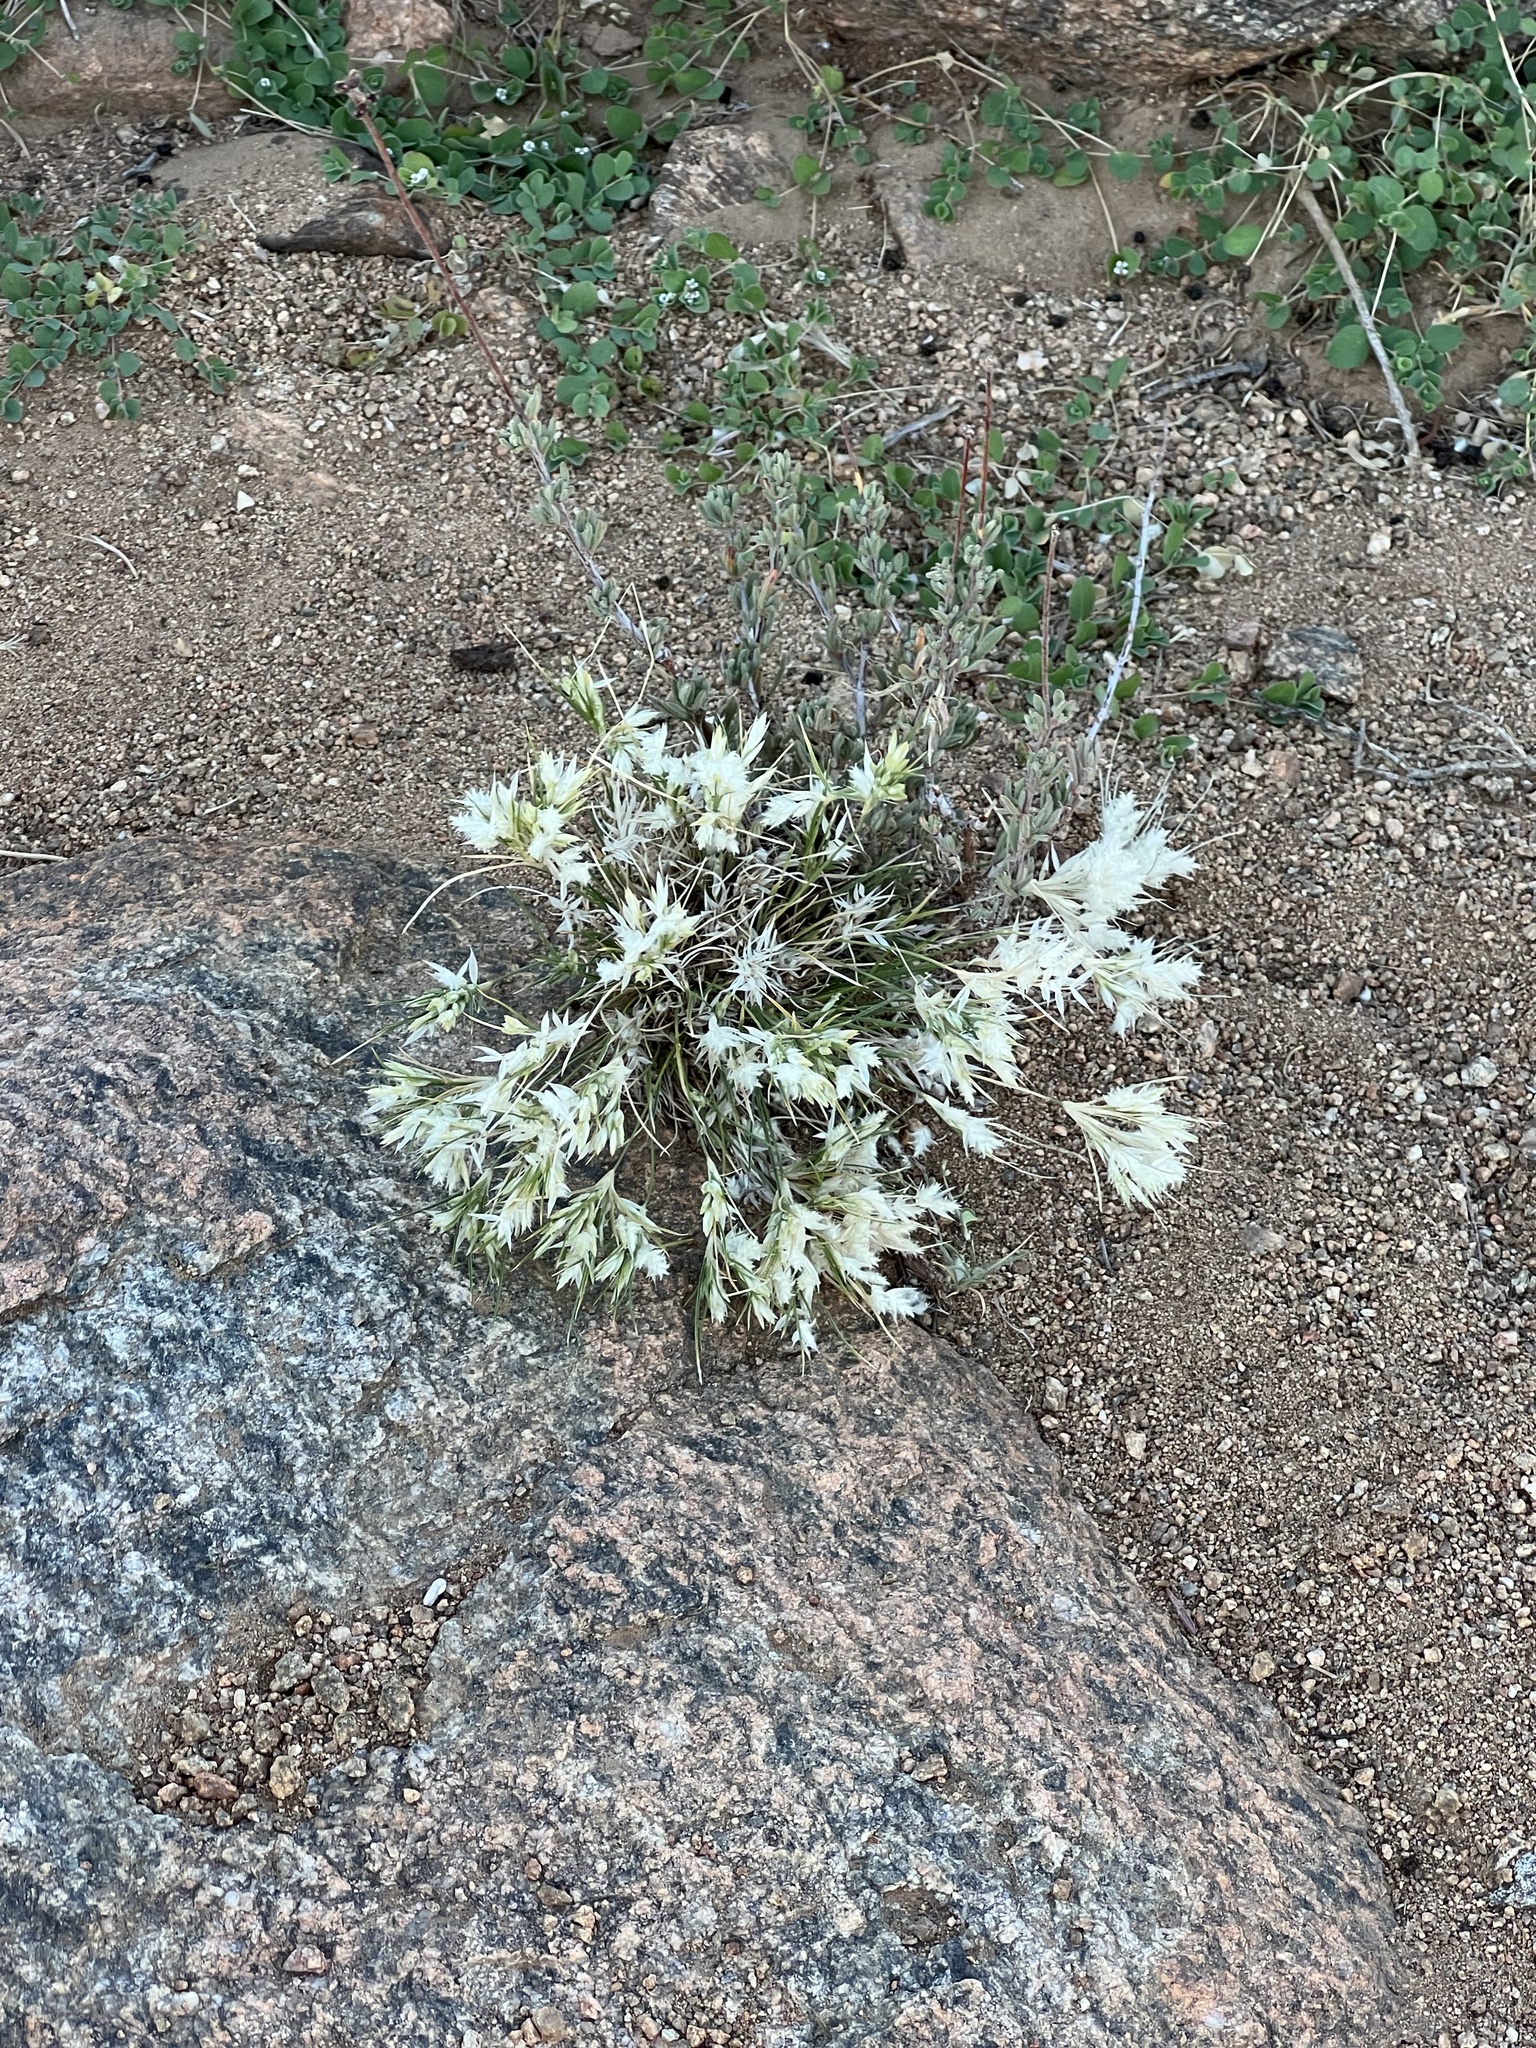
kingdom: Plantae
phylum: Tracheophyta
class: Liliopsida
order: Poales
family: Poaceae
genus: Dasyochloa
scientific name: Dasyochloa pulchella
